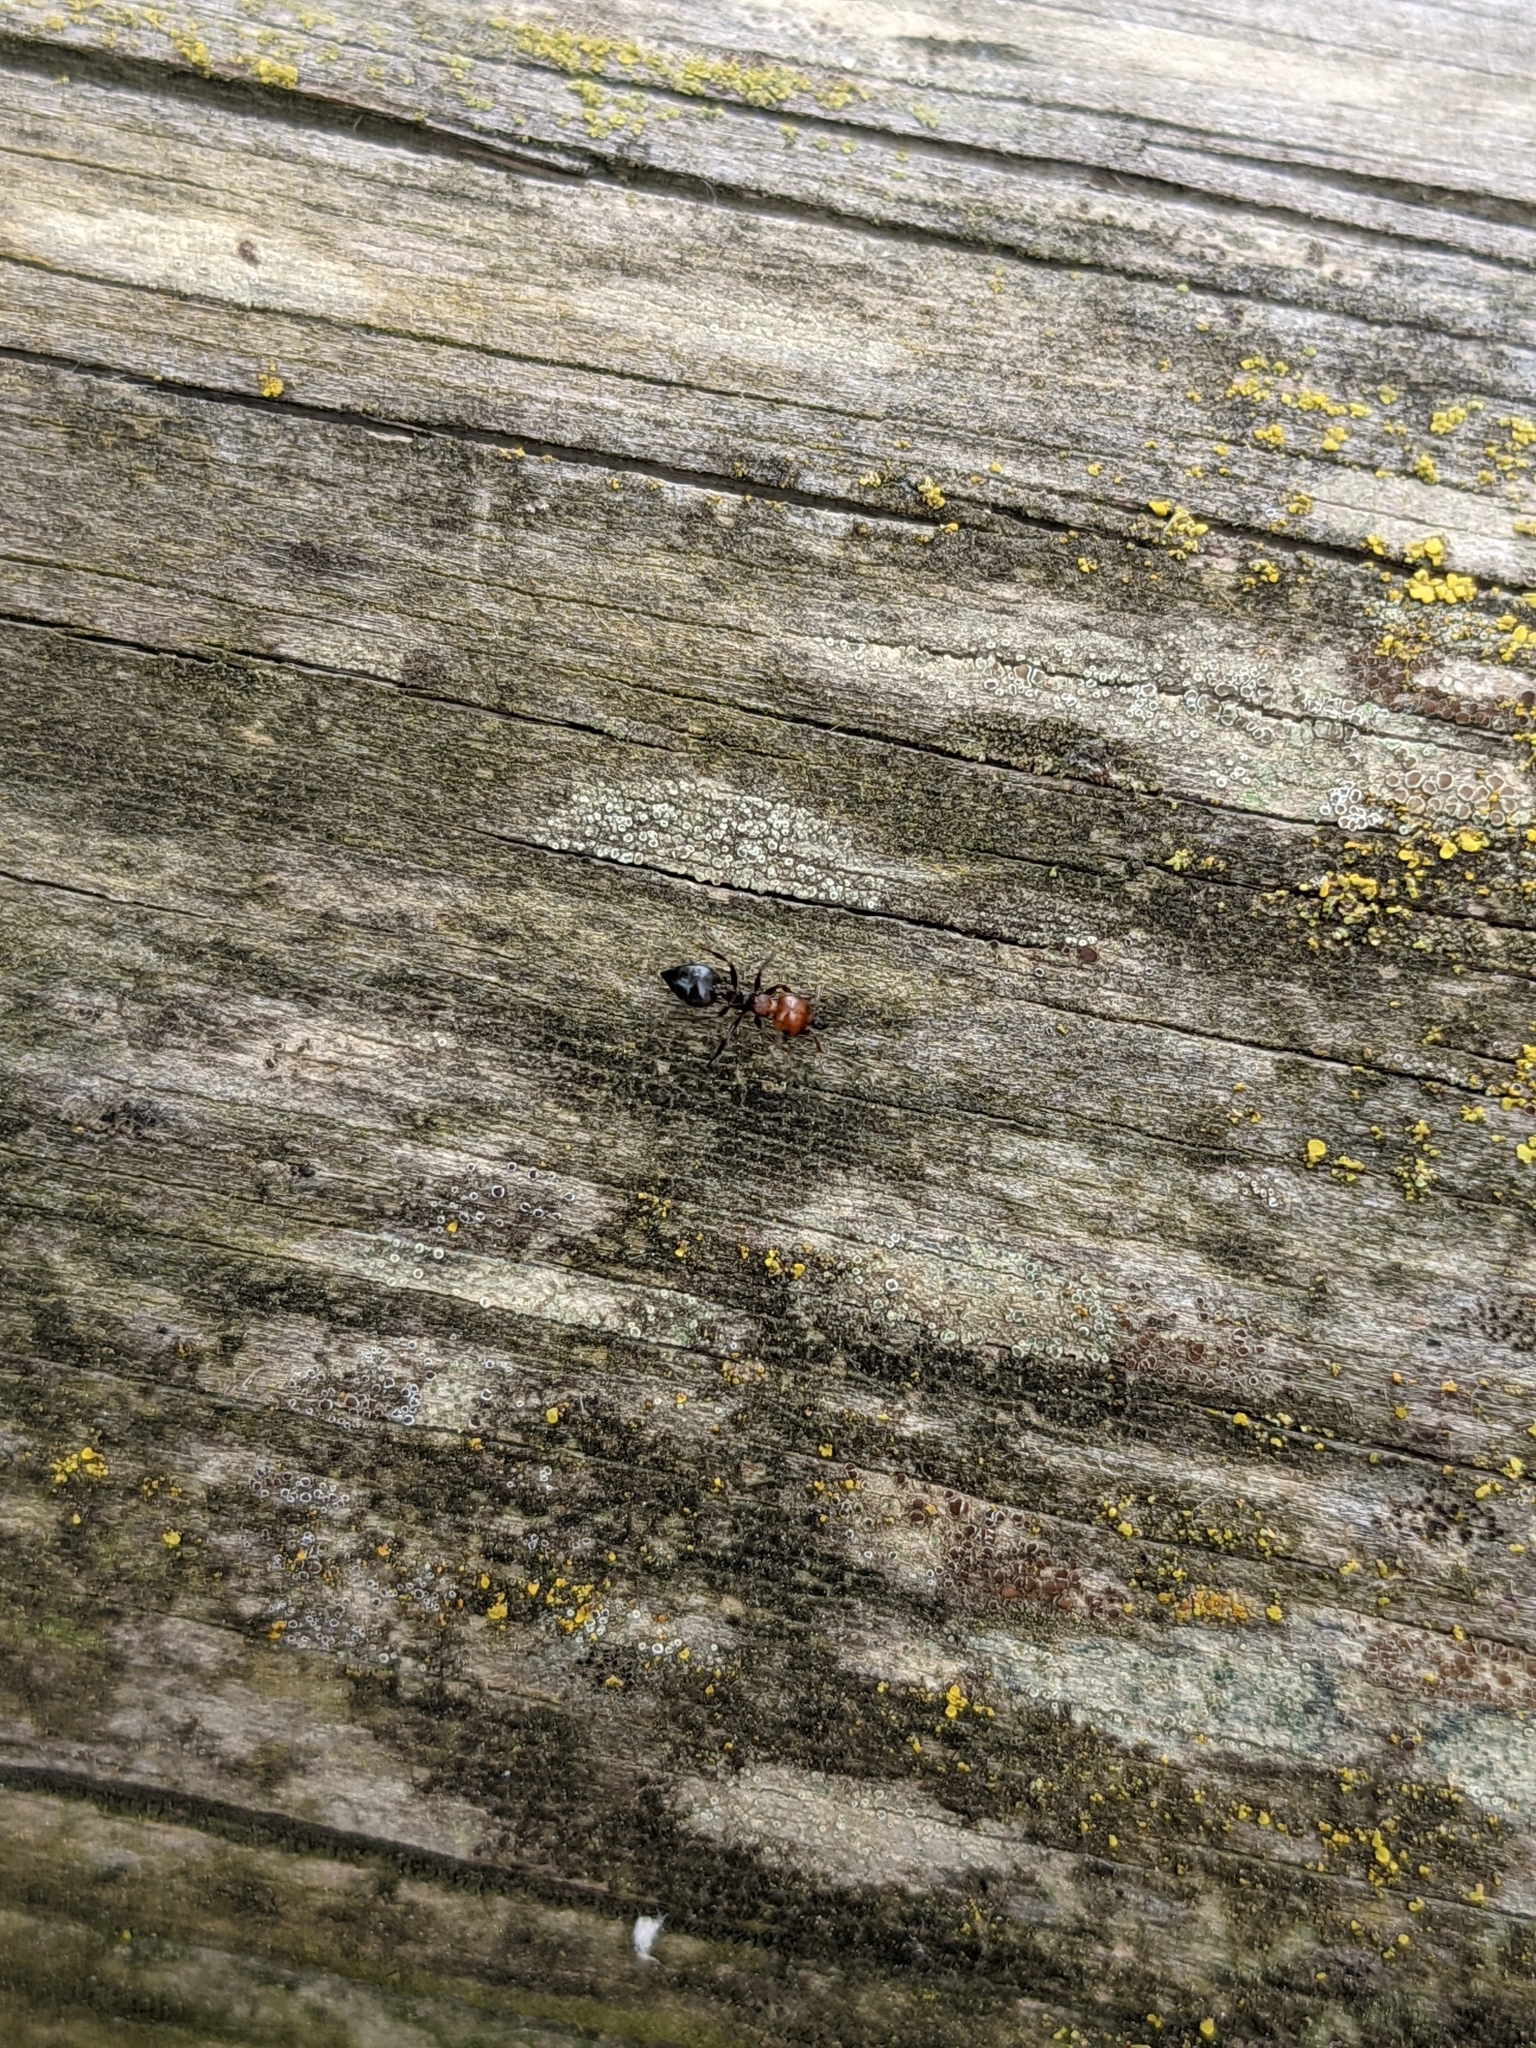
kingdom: Animalia
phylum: Arthropoda
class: Insecta
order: Hymenoptera
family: Formicidae
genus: Crematogaster
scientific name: Crematogaster scutellaris
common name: Fourmi du liège
